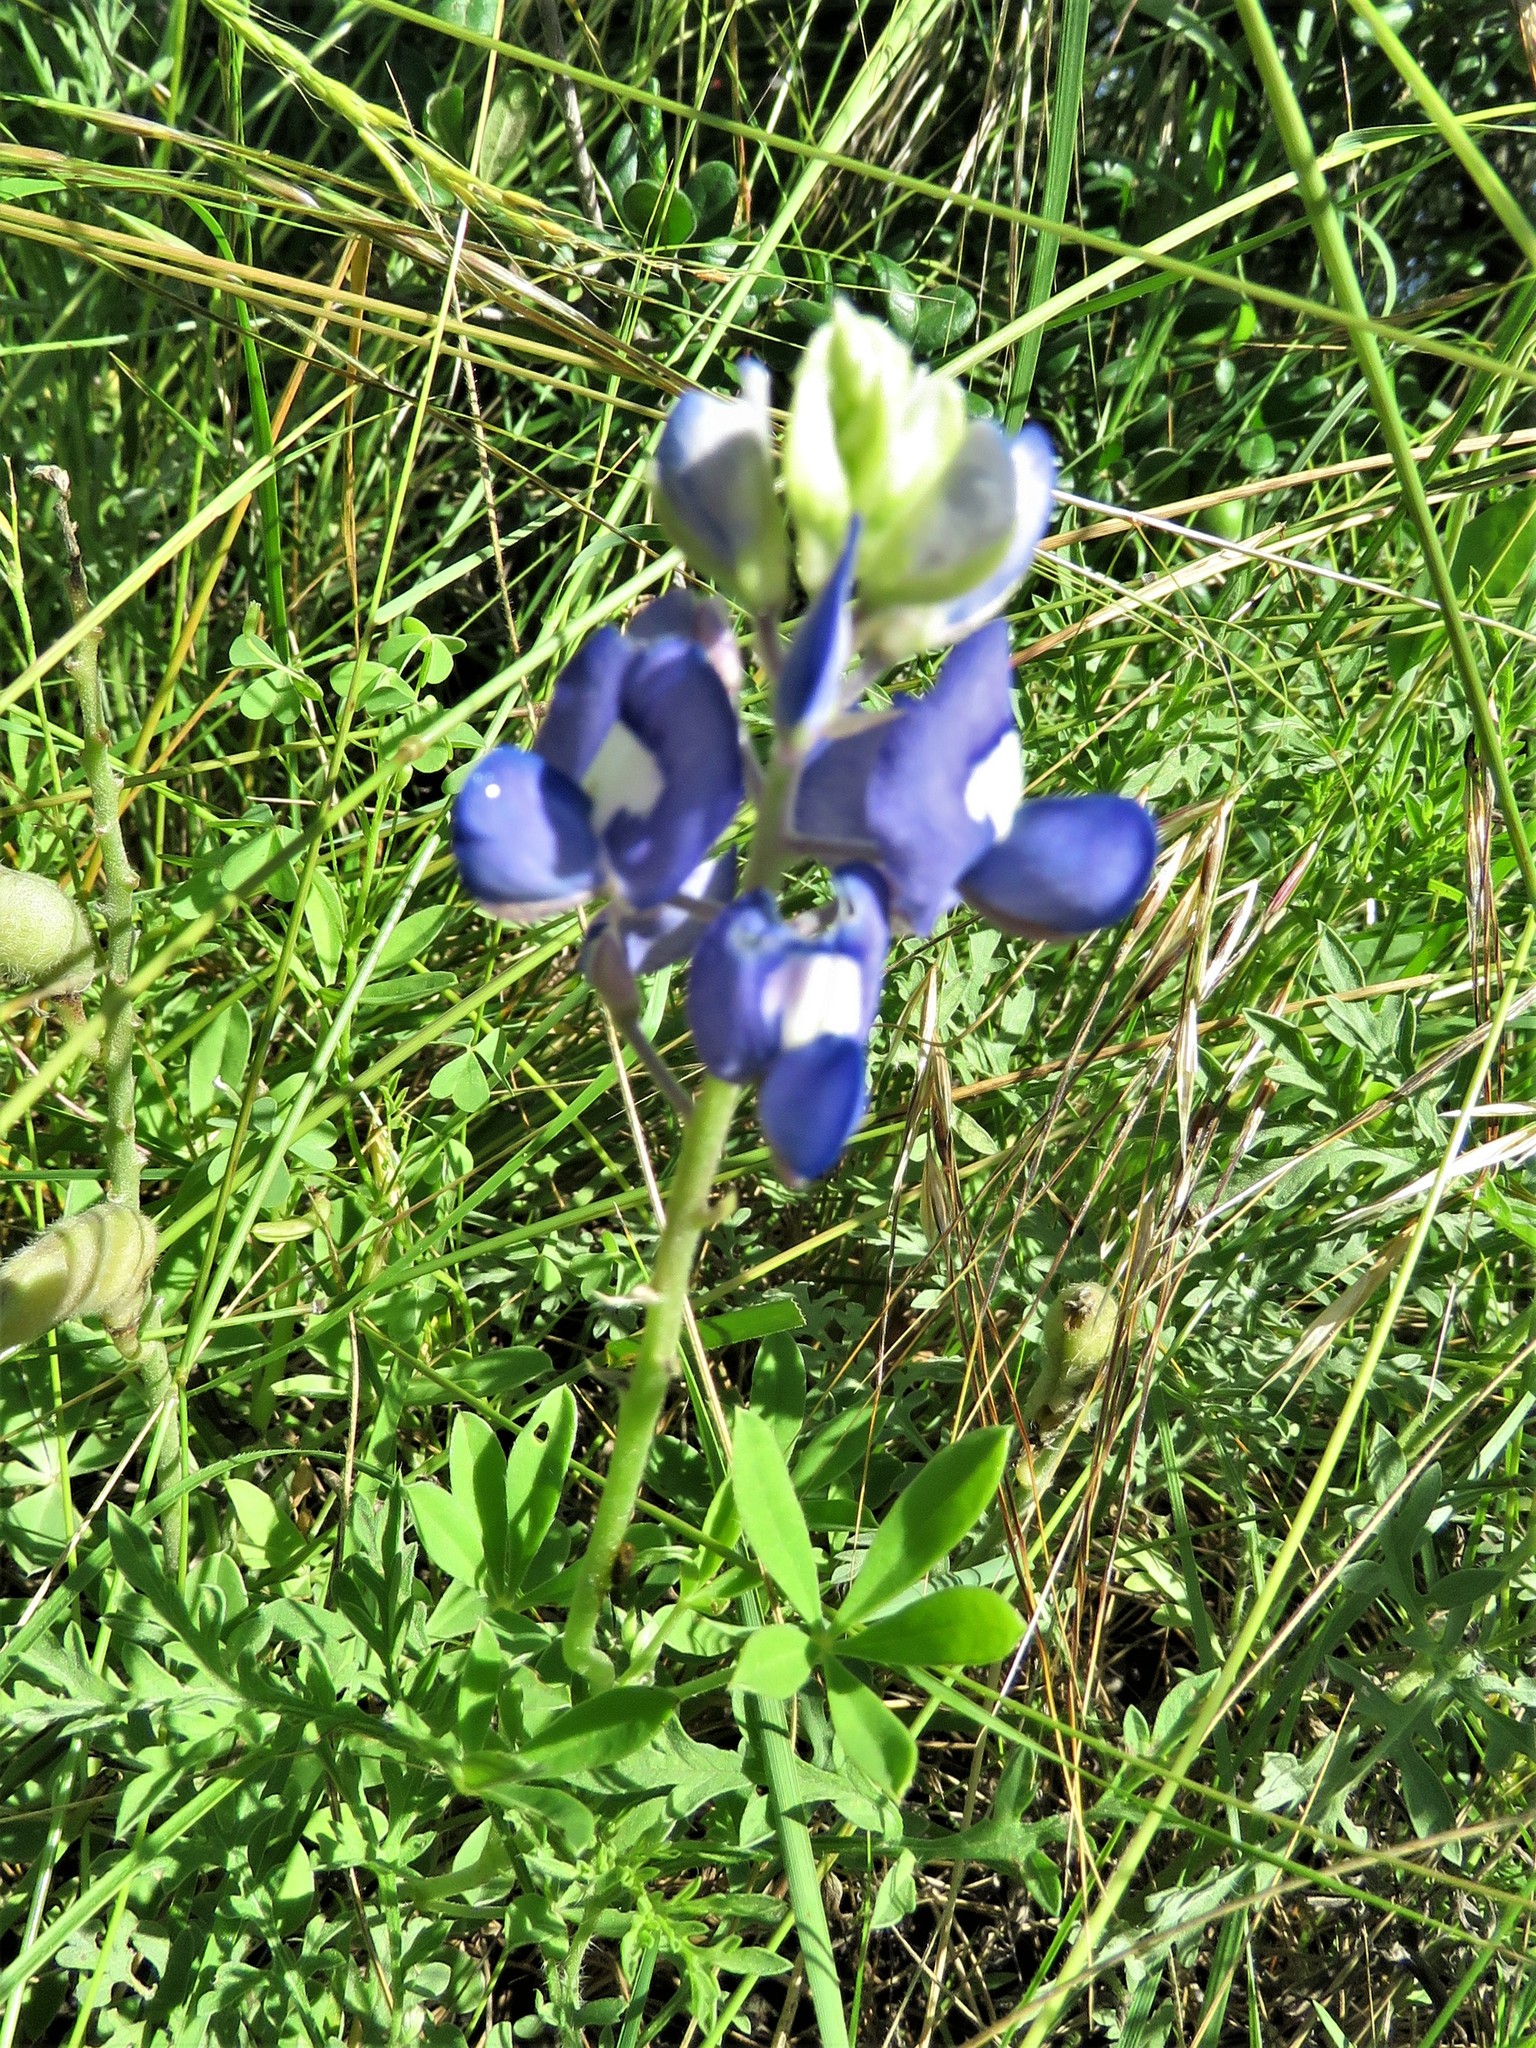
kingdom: Plantae
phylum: Tracheophyta
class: Magnoliopsida
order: Fabales
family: Fabaceae
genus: Lupinus
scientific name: Lupinus texensis
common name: Texas bluebonnet
